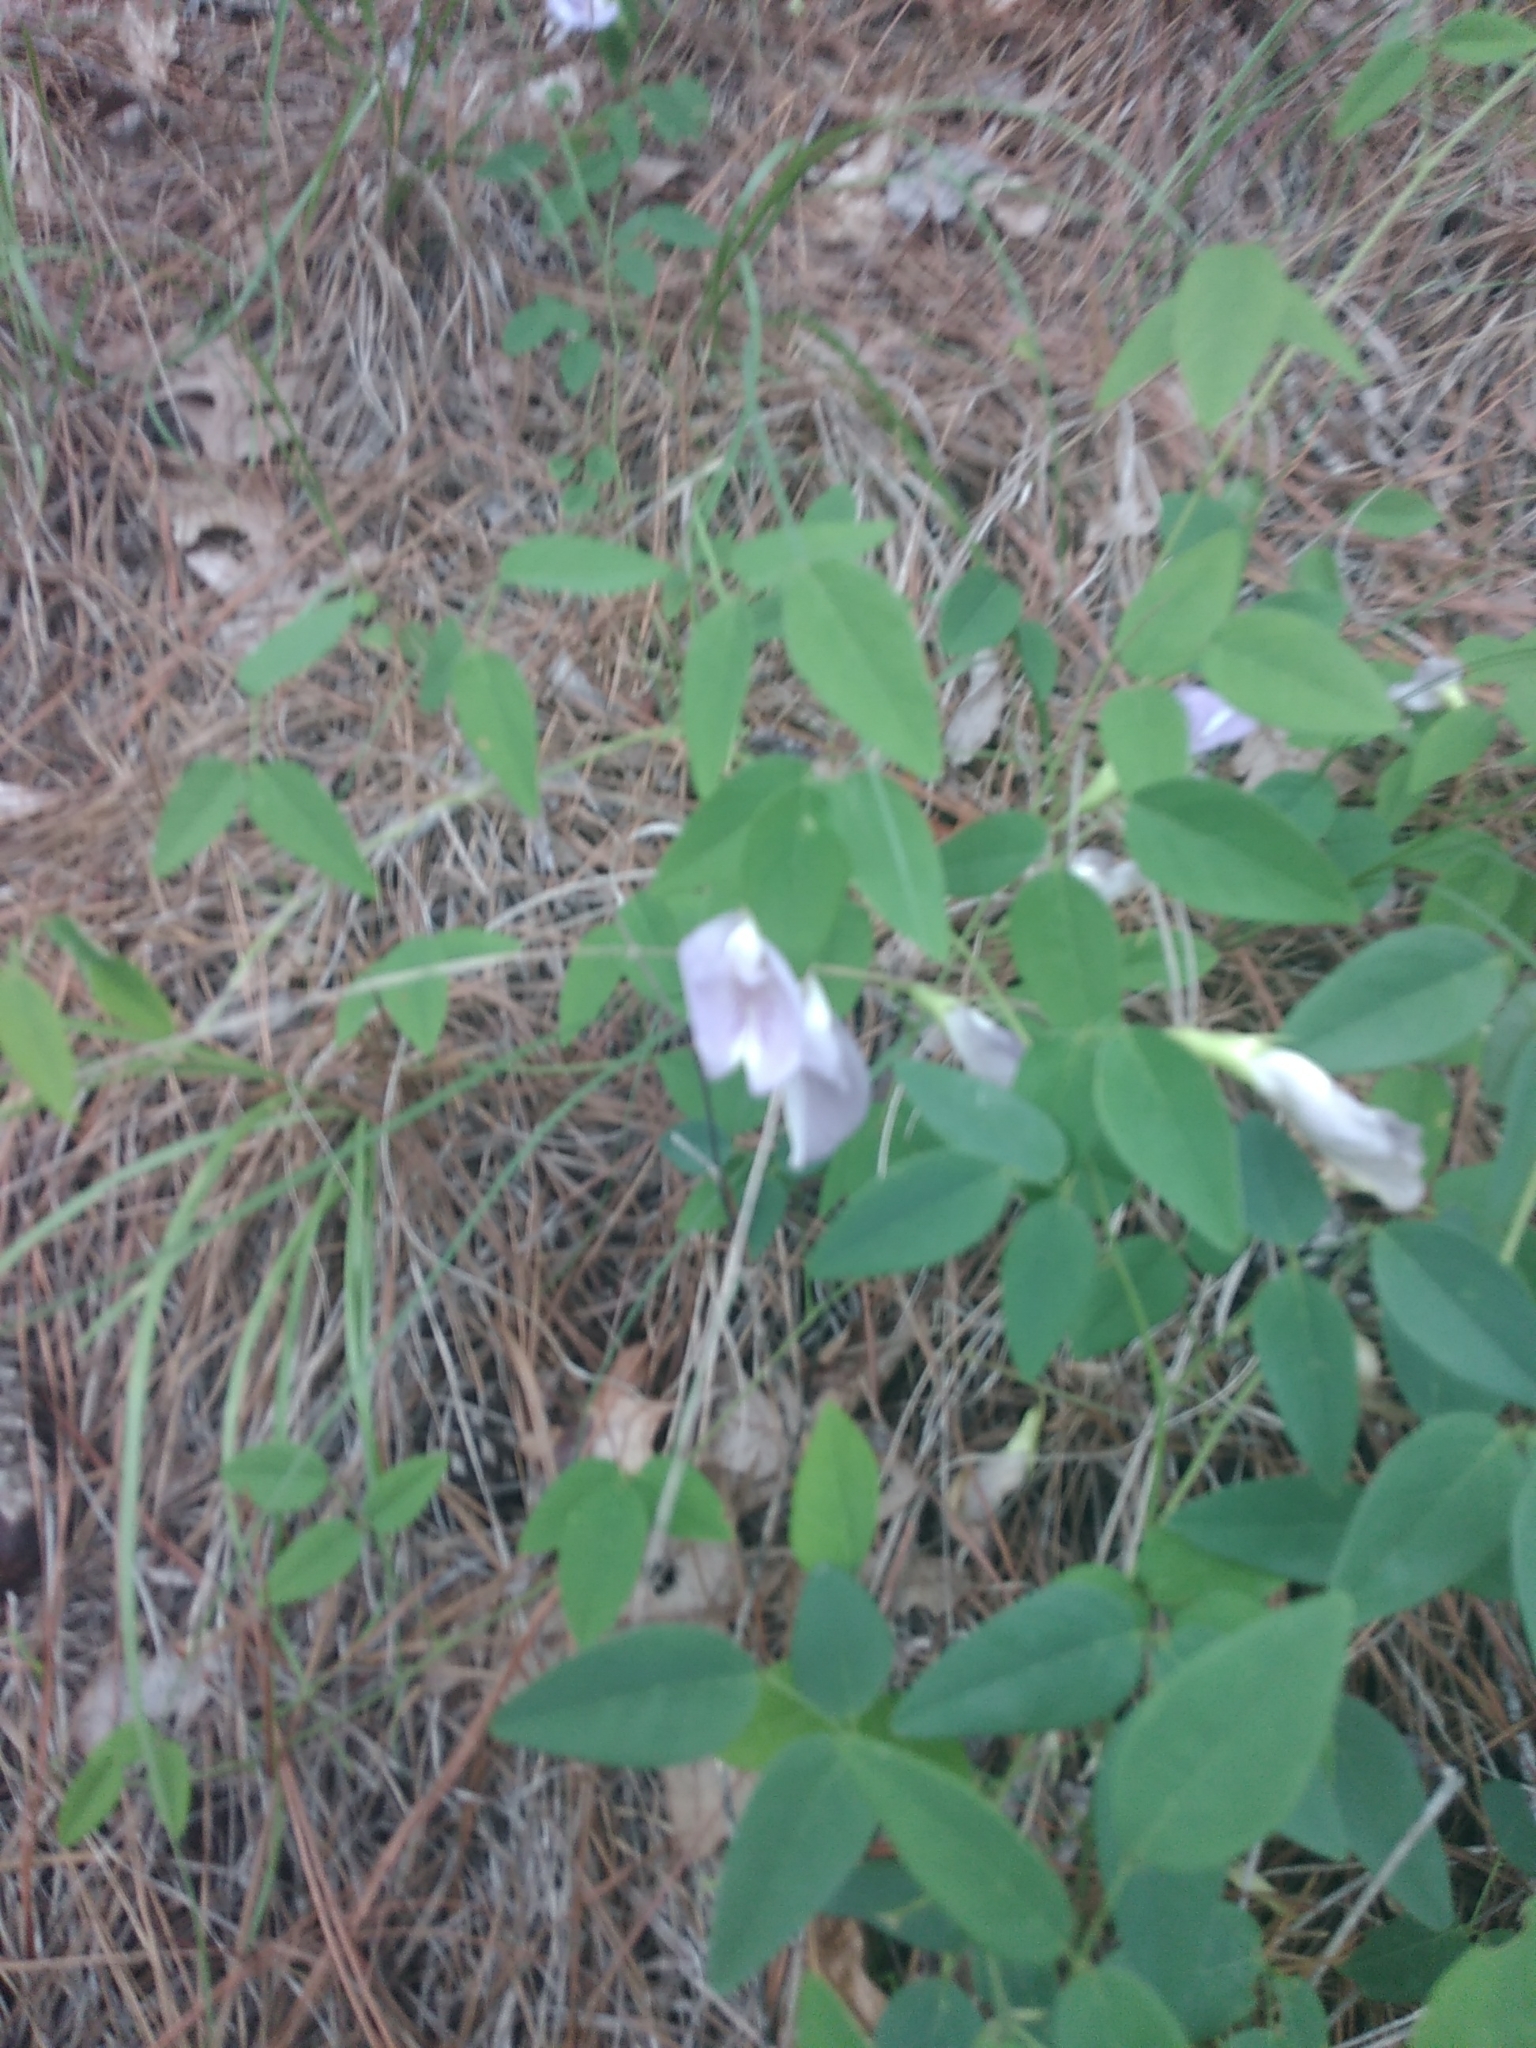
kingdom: Plantae
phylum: Tracheophyta
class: Magnoliopsida
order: Fabales
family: Fabaceae
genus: Clitoria
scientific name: Clitoria mariana
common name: Butterfly-pea
